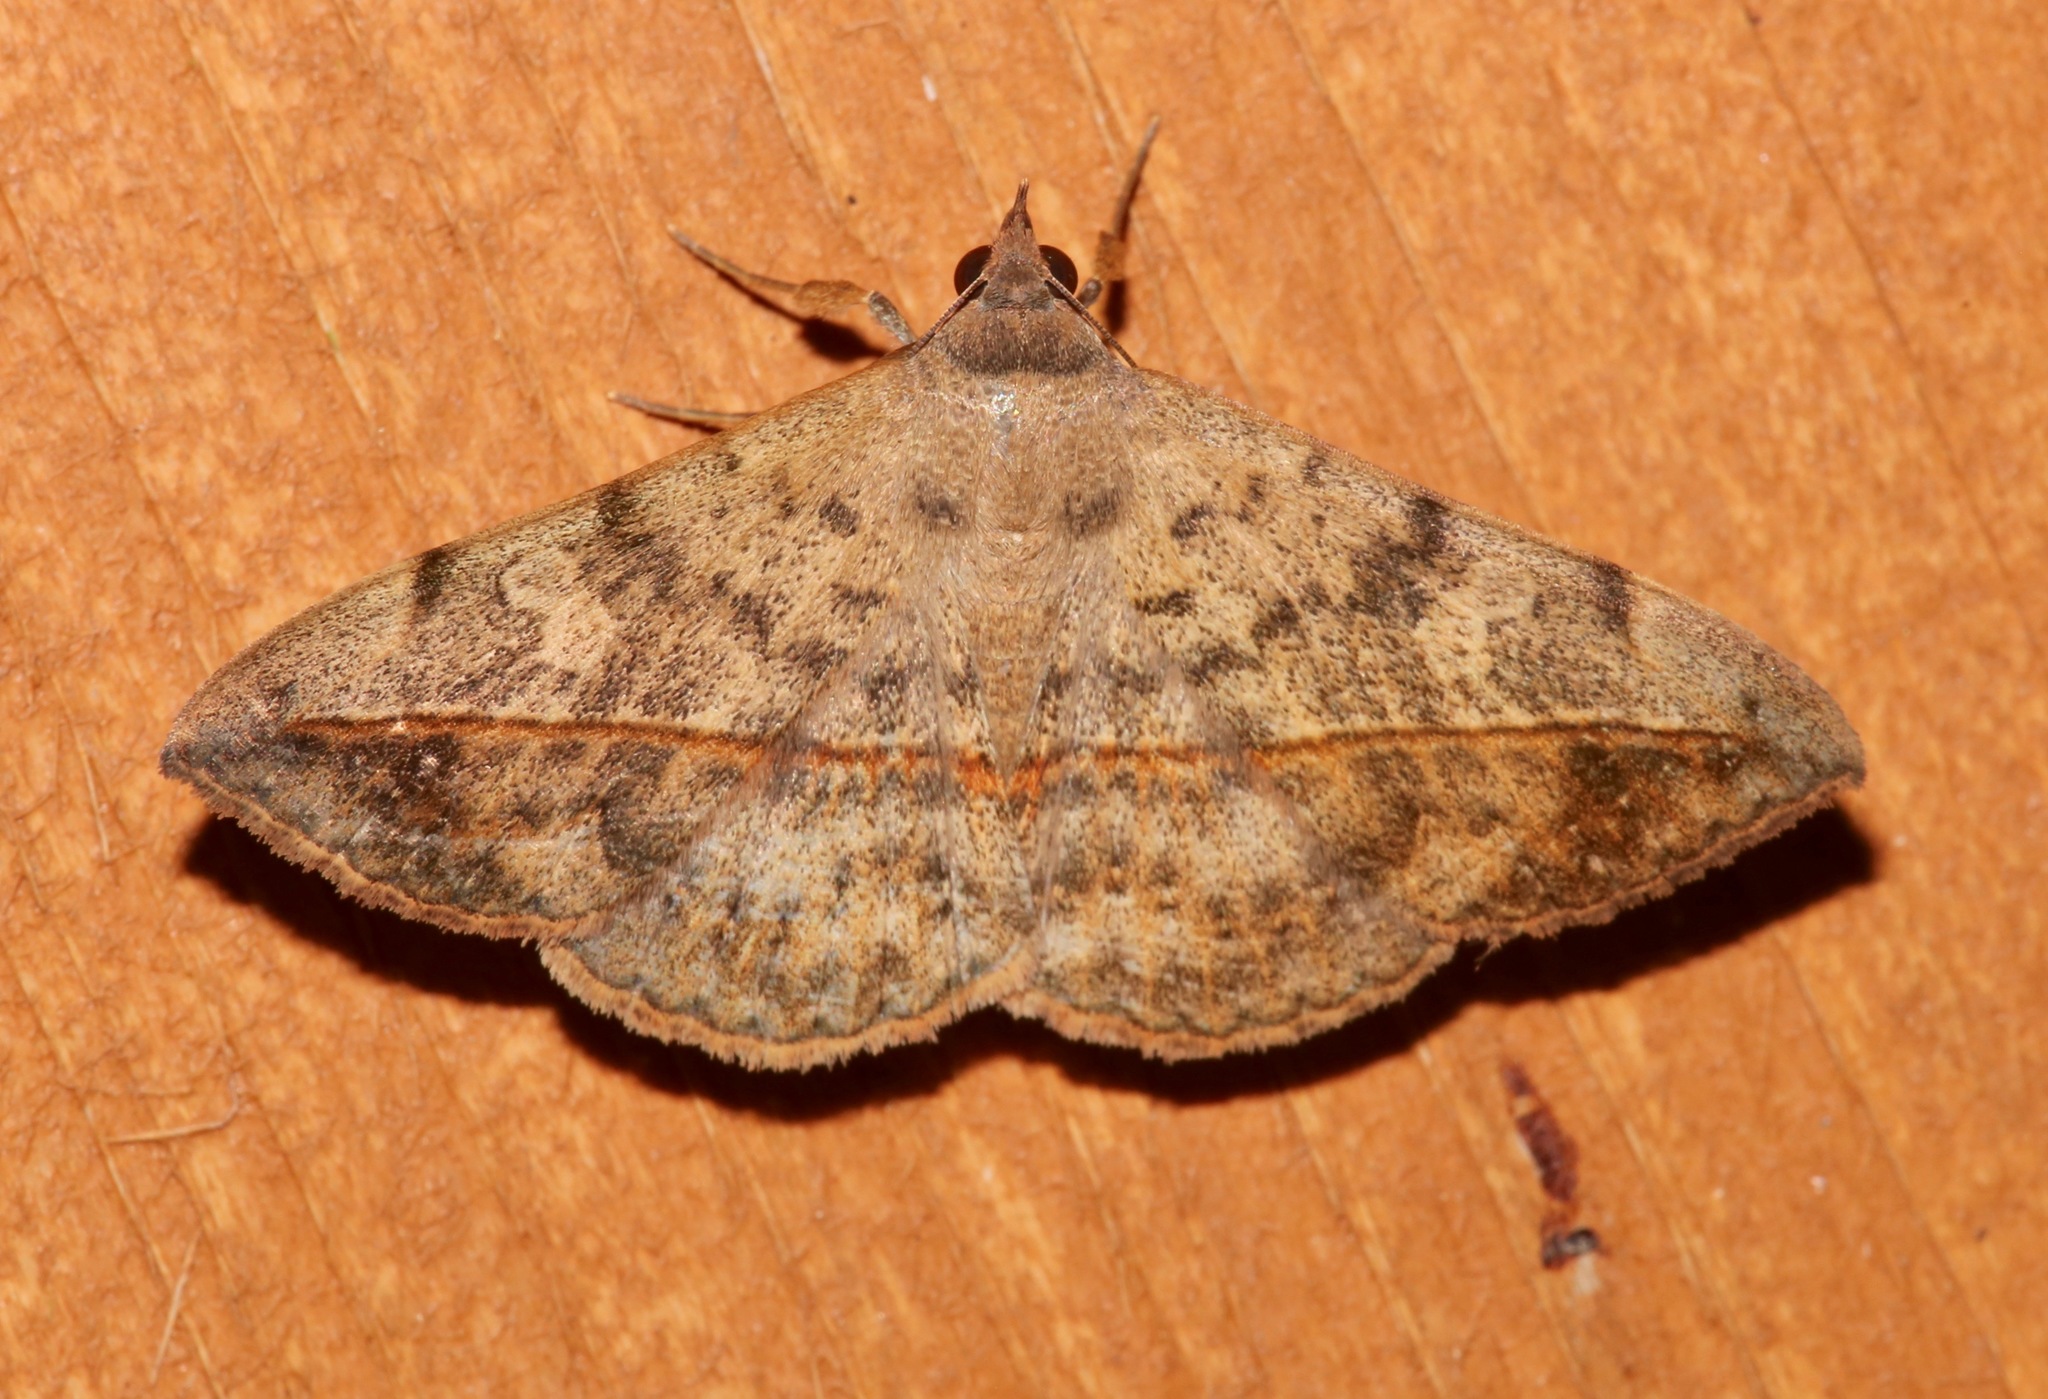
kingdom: Animalia
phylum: Arthropoda
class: Insecta
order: Lepidoptera
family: Erebidae
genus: Anticarsia
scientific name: Anticarsia gemmatalis
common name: Cutworm moth
